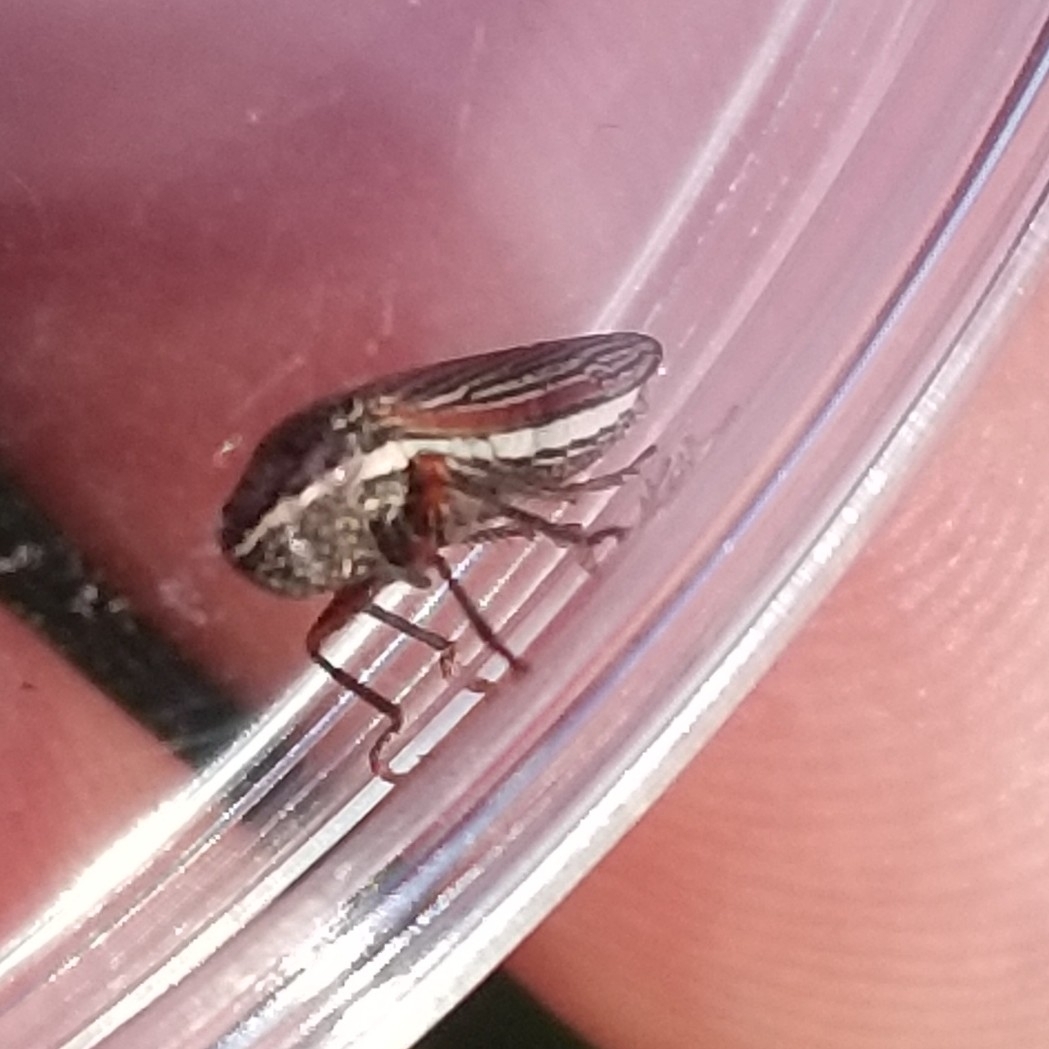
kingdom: Animalia
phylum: Arthropoda
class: Insecta
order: Hemiptera
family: Cicadellidae
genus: Cuerna
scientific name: Cuerna costalis
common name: Lateral-lined sharpshooter
